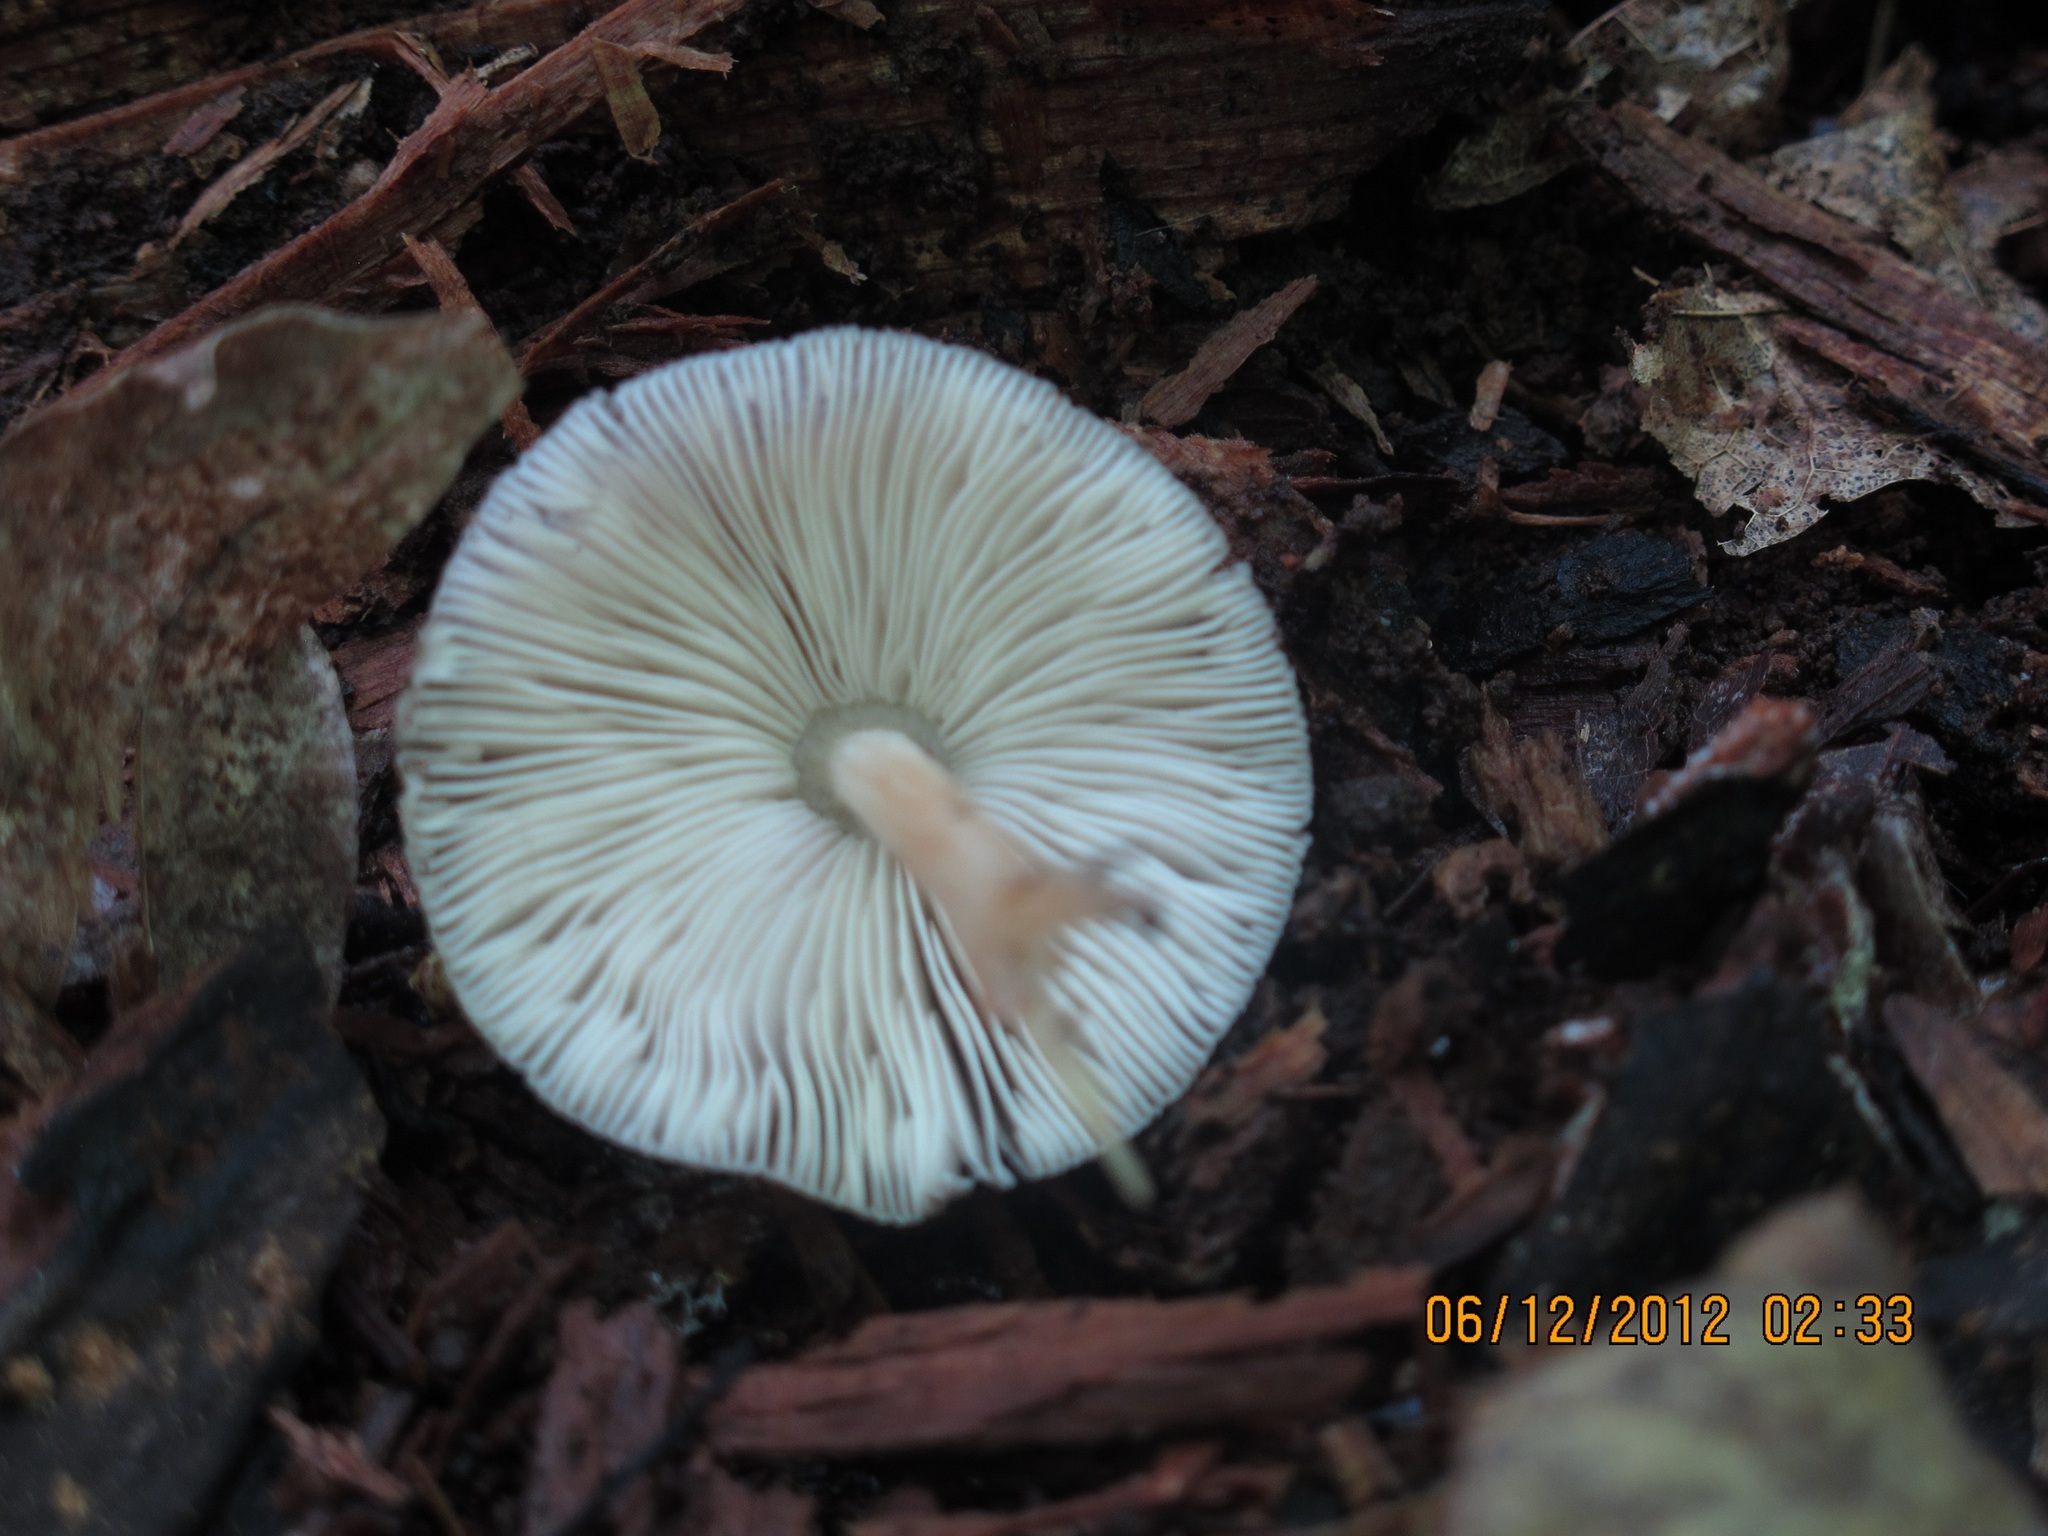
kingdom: Fungi
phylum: Basidiomycota
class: Agaricomycetes
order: Agaricales
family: Pluteaceae
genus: Pluteus
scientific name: Pluteus longistriatus
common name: Pleated pluteus
